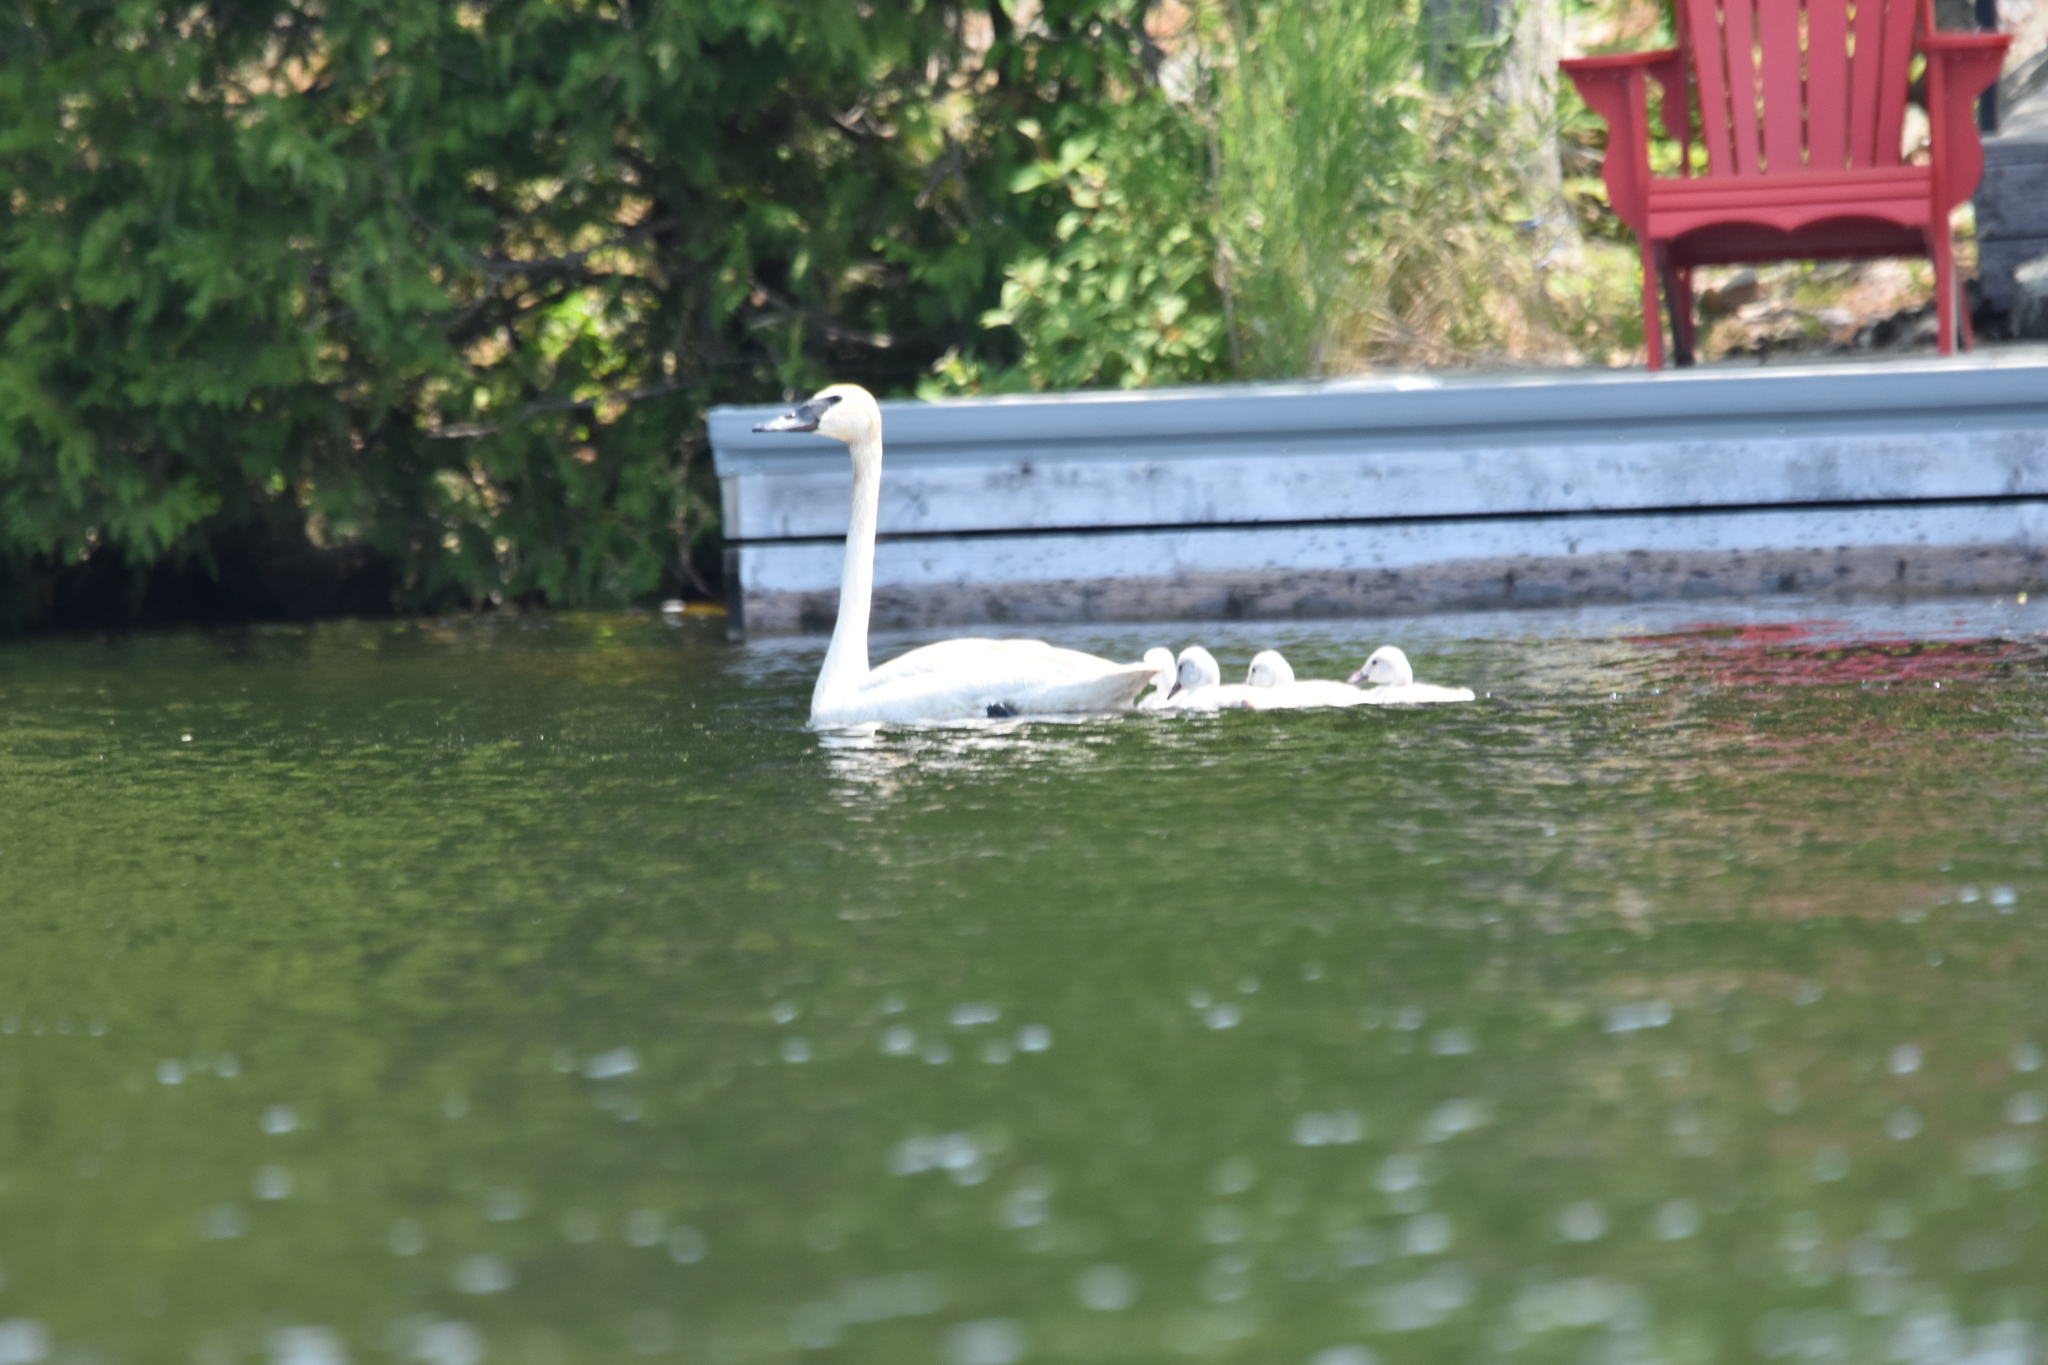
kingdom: Animalia
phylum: Chordata
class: Aves
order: Anseriformes
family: Anatidae
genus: Cygnus
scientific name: Cygnus buccinator
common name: Trumpeter swan
